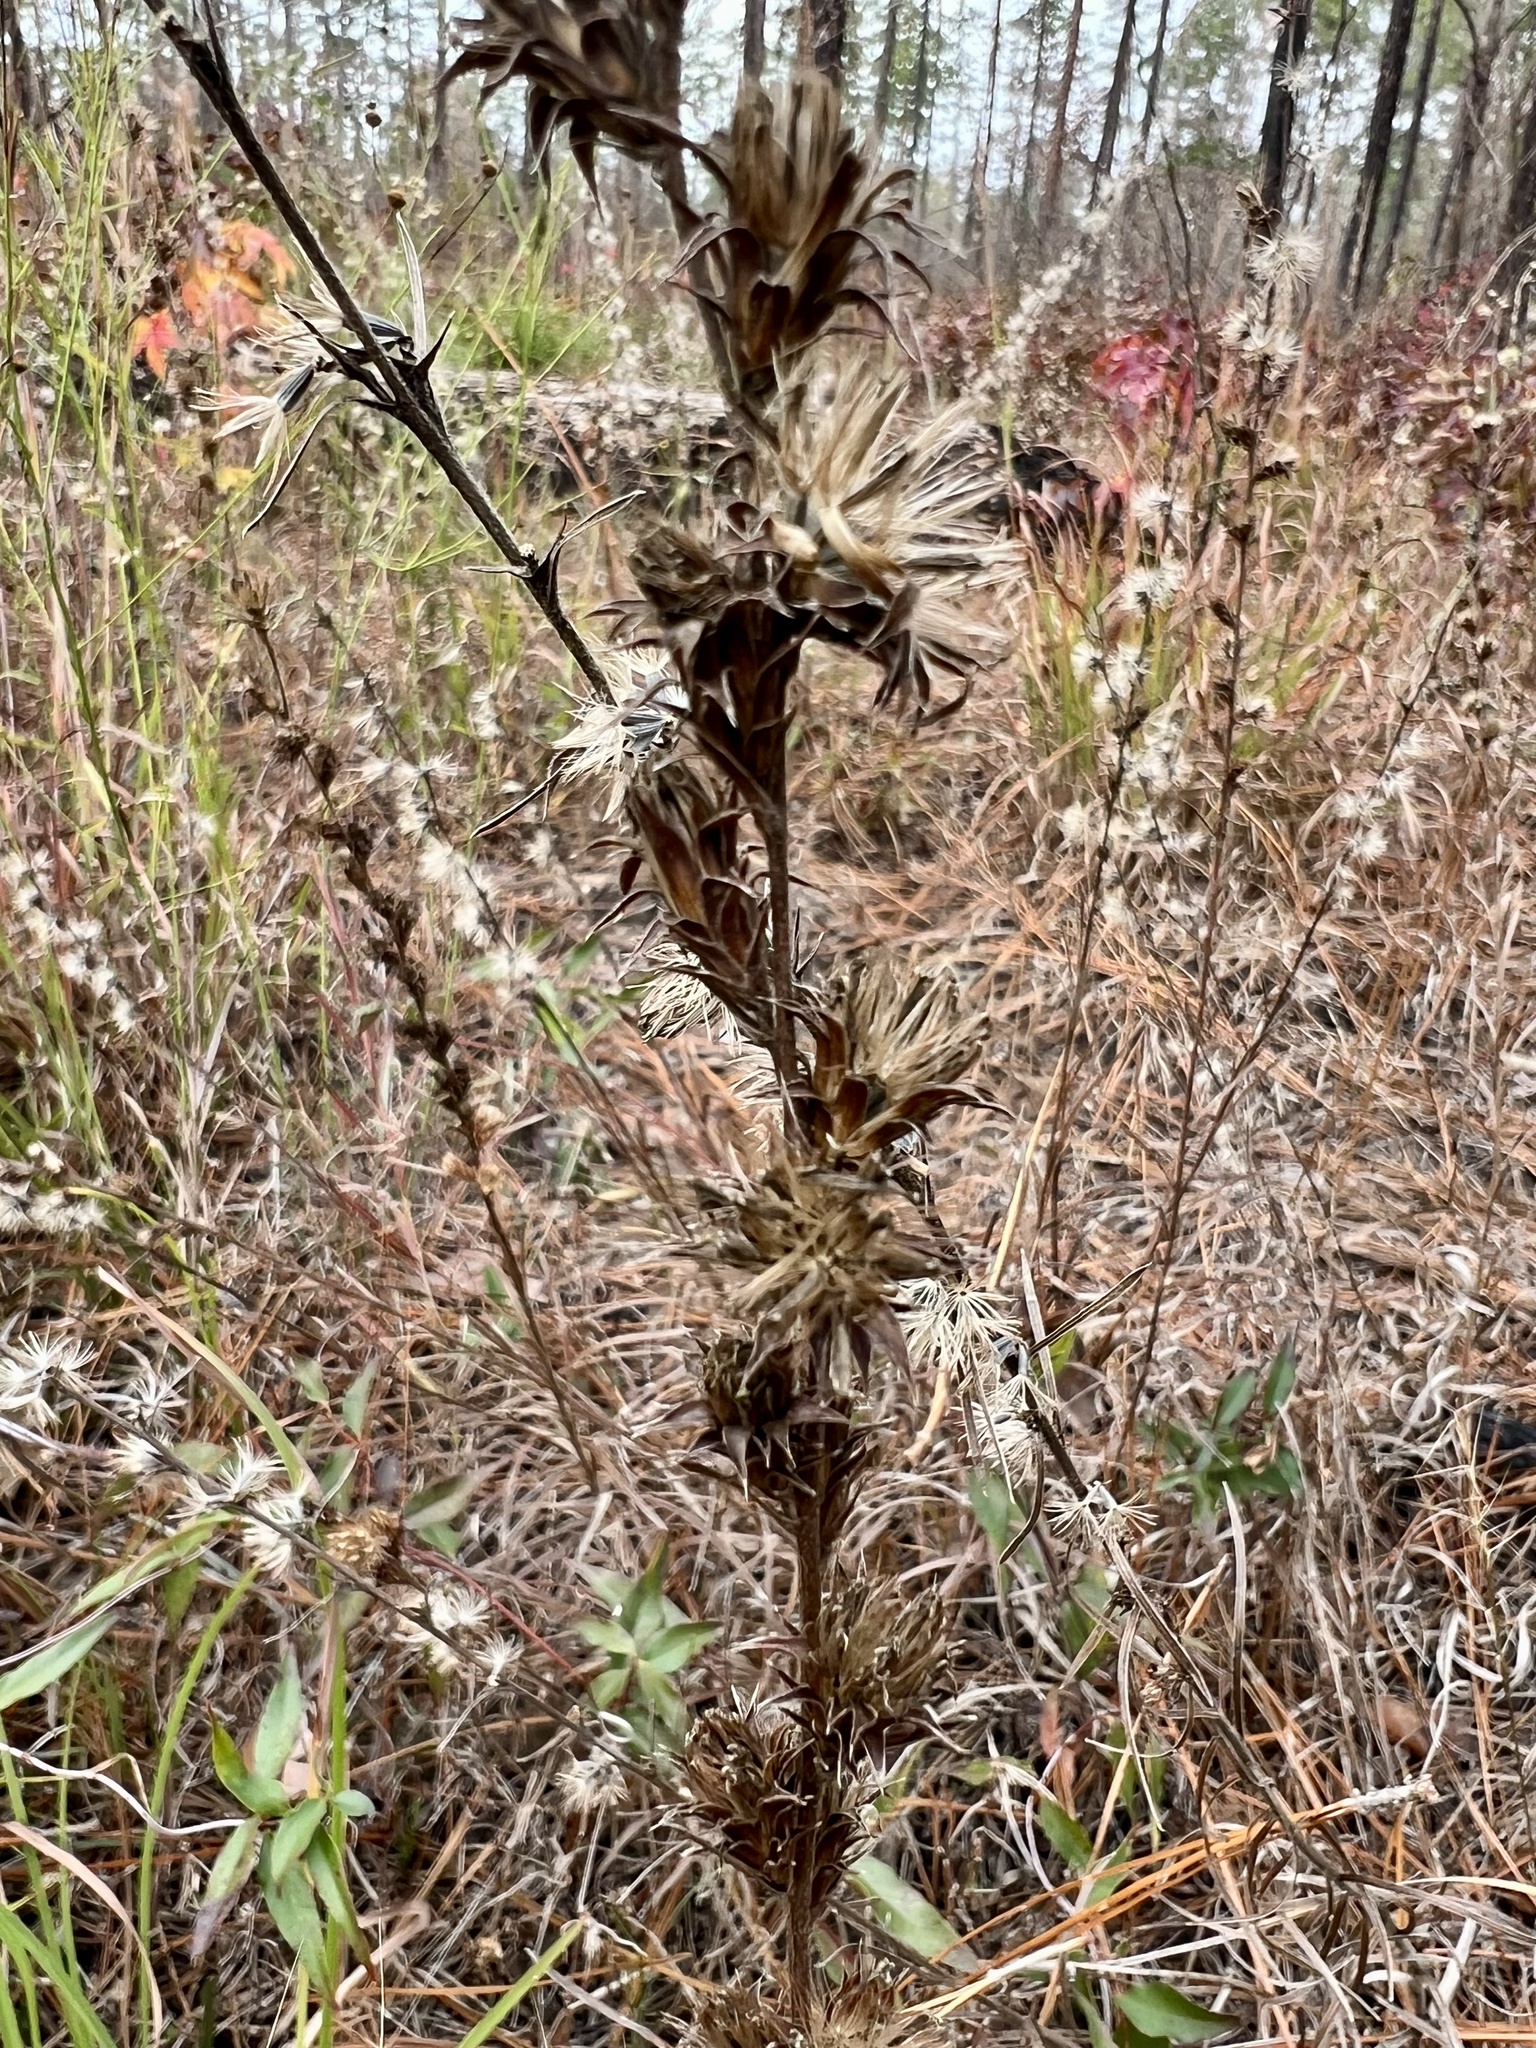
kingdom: Plantae
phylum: Tracheophyta
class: Magnoliopsida
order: Asterales
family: Asteraceae
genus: Liatris
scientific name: Liatris squarrosa
